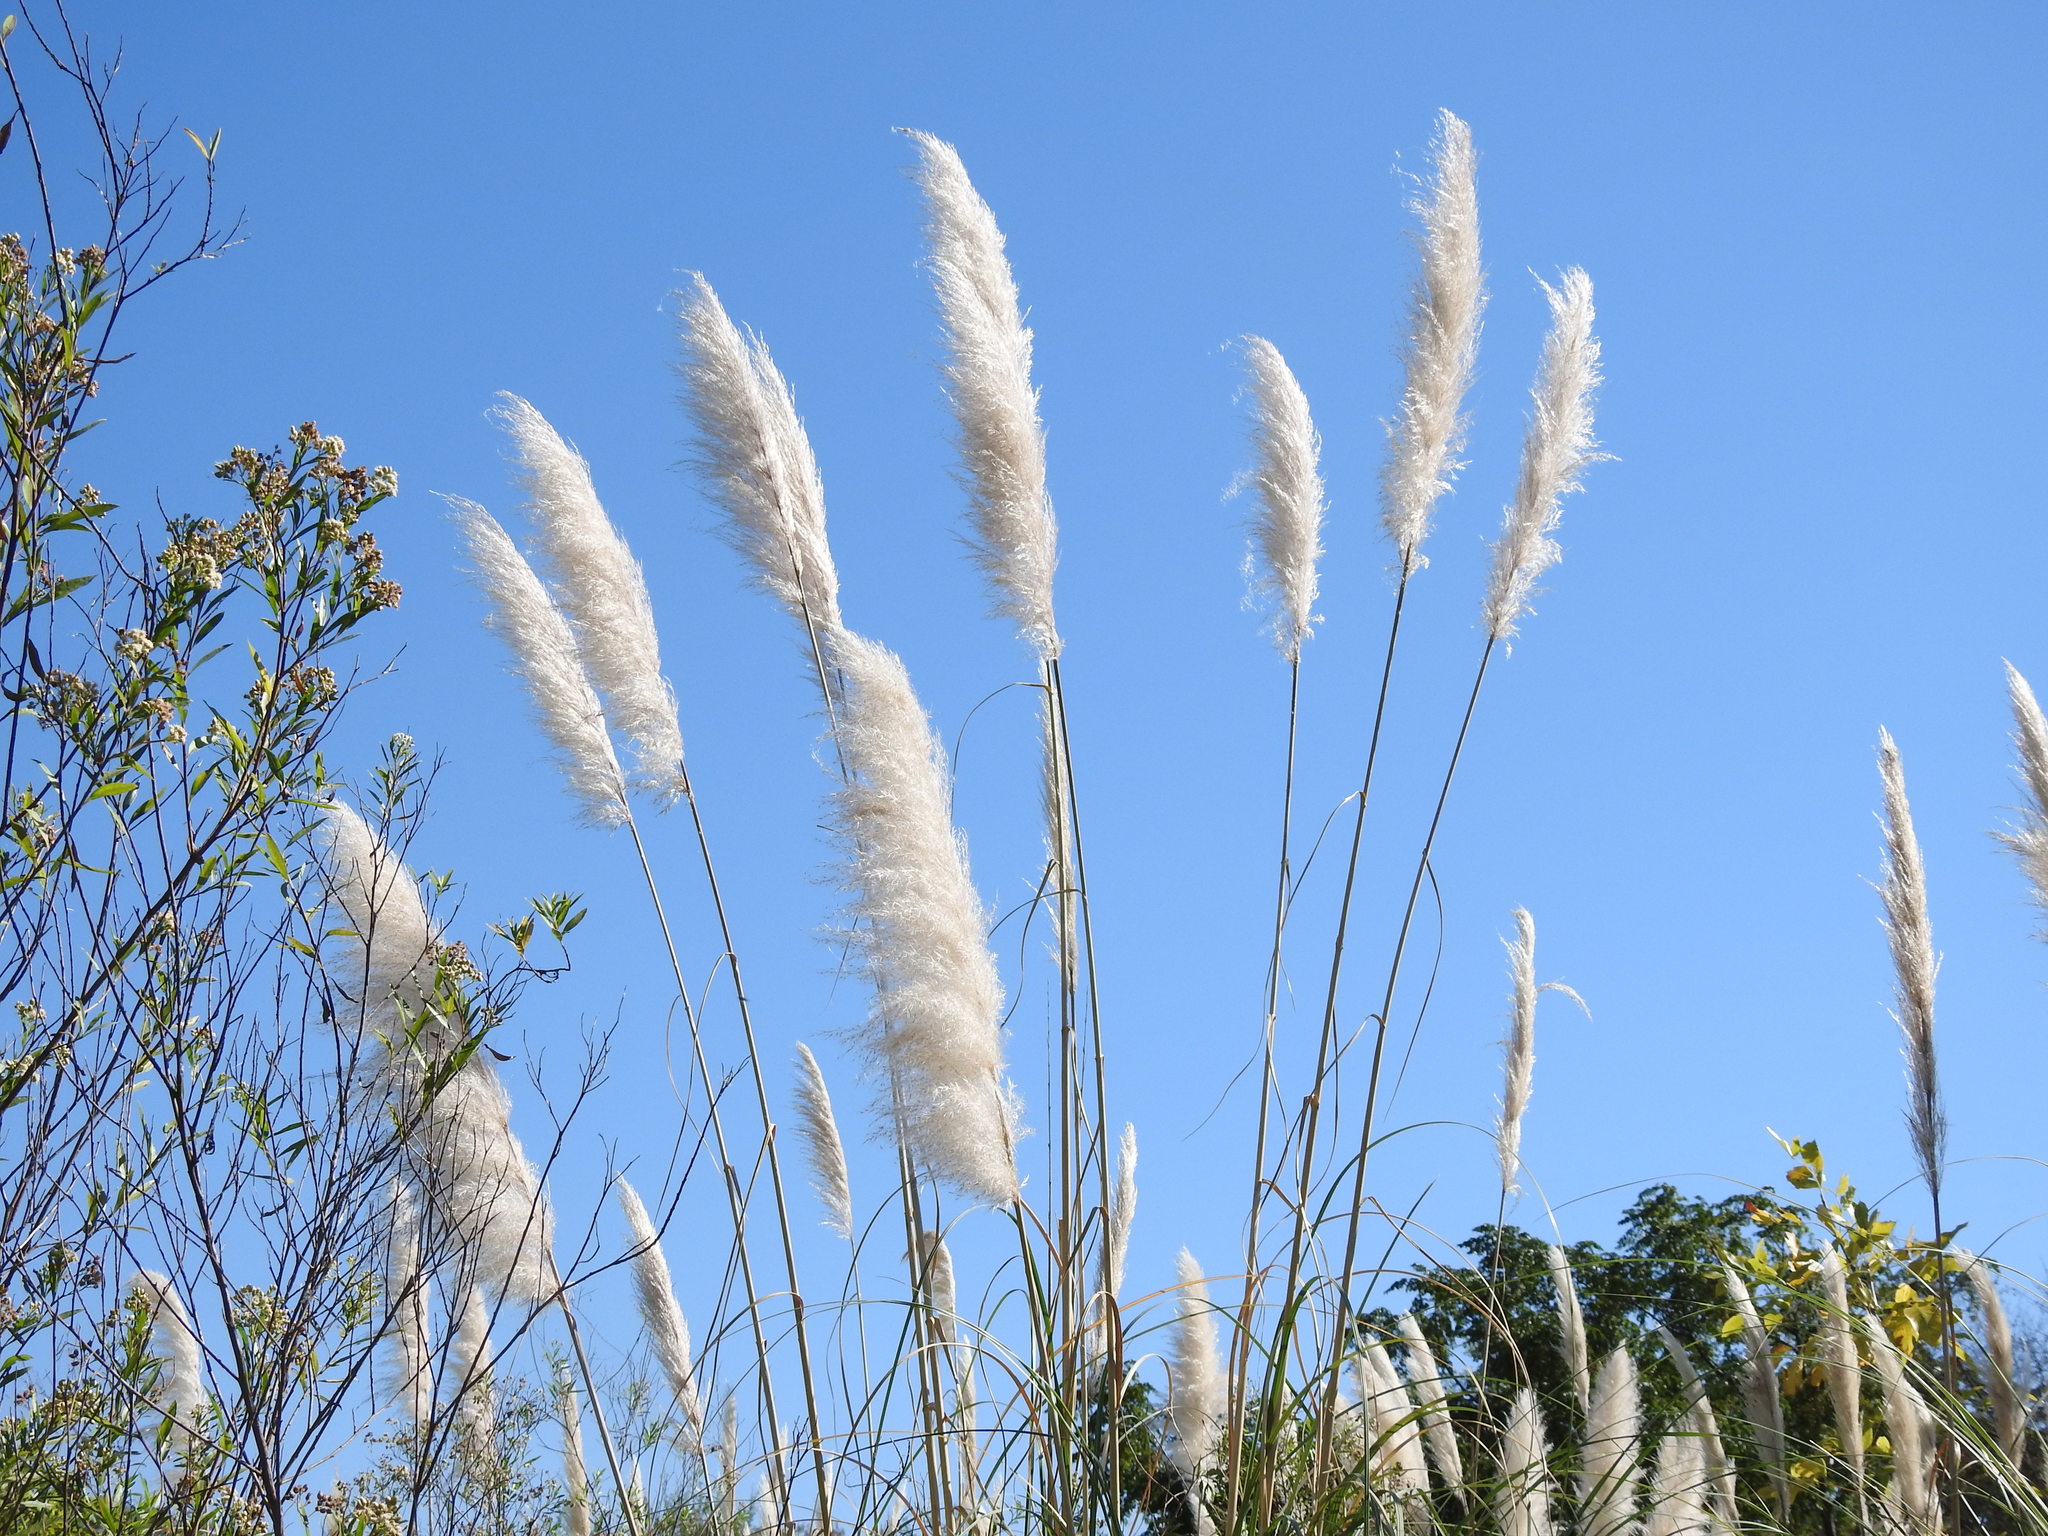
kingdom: Plantae
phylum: Tracheophyta
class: Liliopsida
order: Poales
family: Poaceae
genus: Cortaderia
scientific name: Cortaderia selloana
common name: Uruguayan pampas grass
